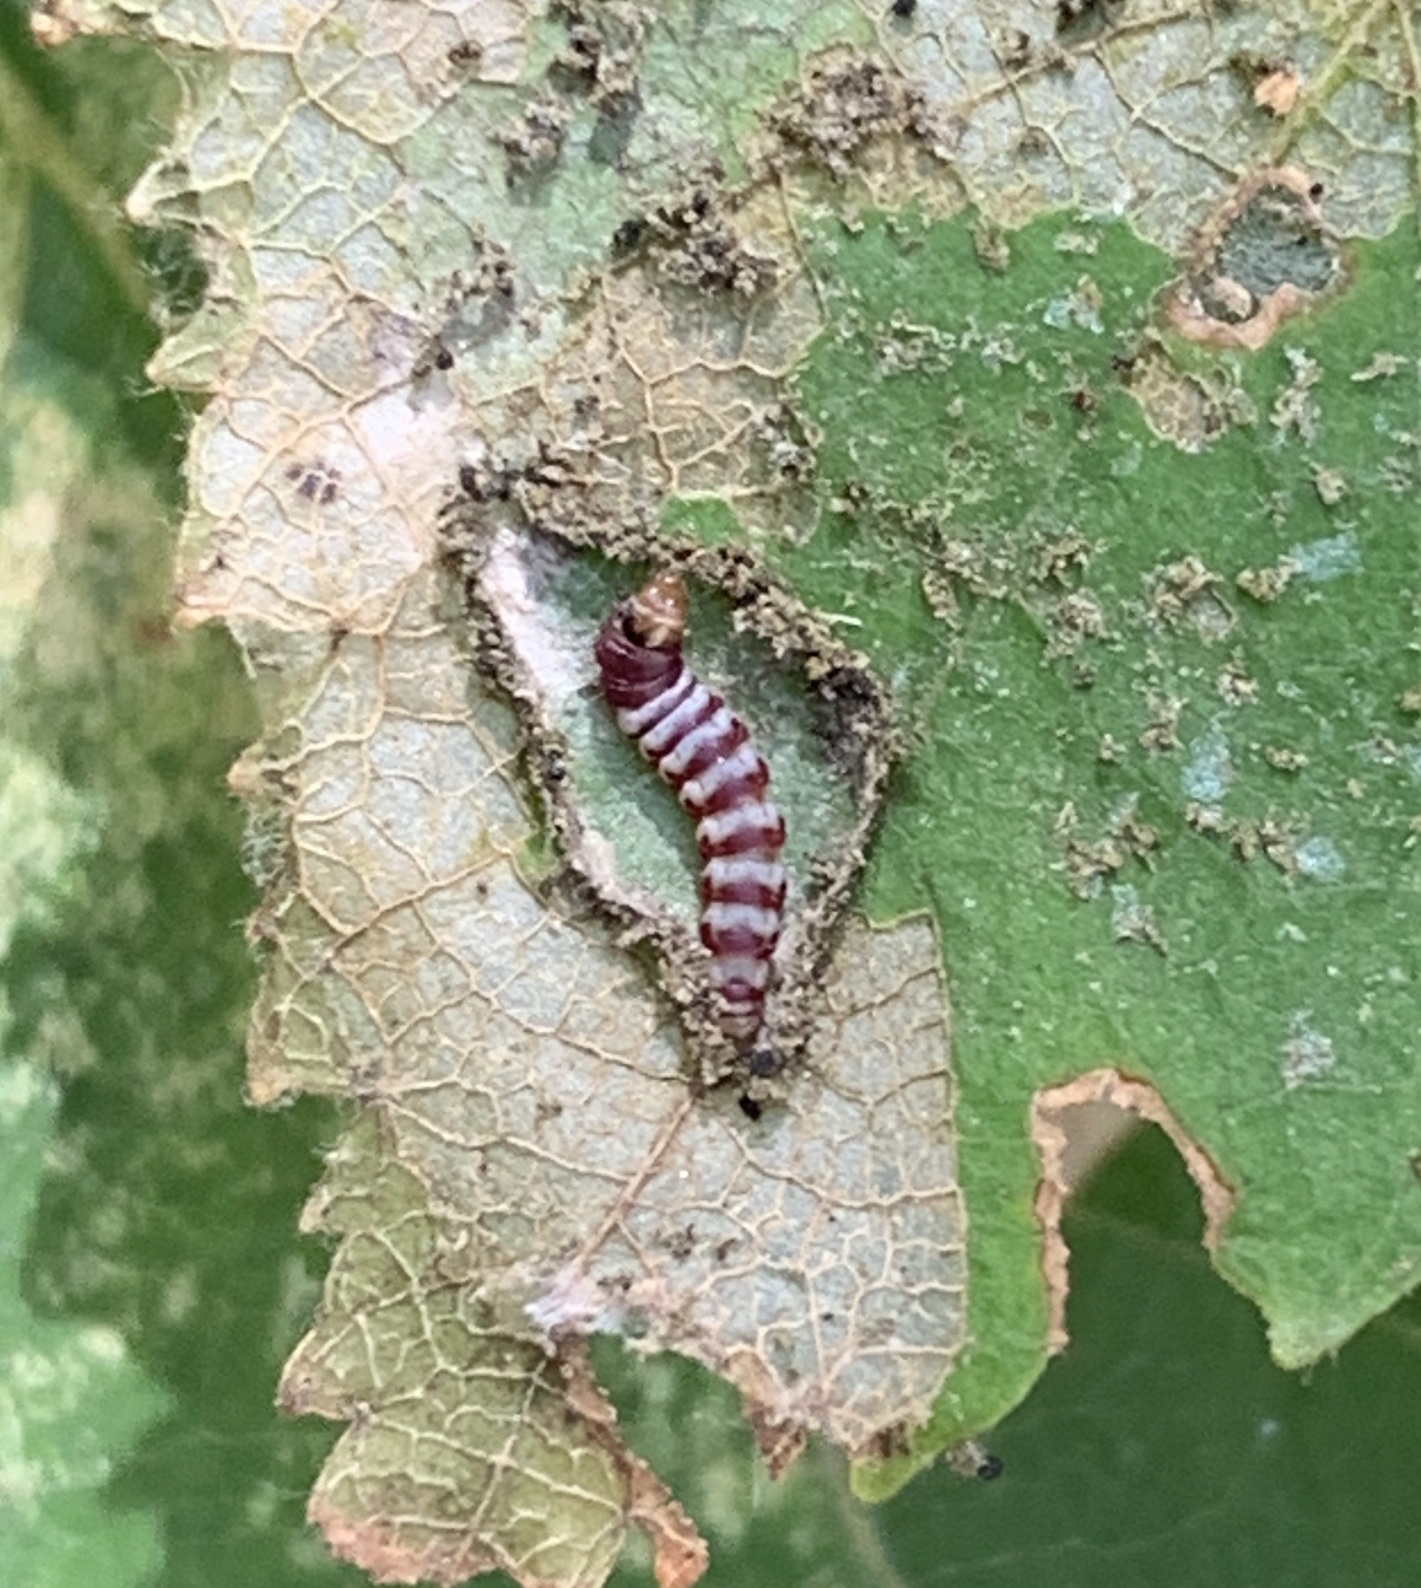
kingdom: Animalia
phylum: Arthropoda
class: Insecta
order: Lepidoptera
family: Gelechiidae
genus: Arogalea
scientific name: Arogalea cristifasciella
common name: White stripe-backed moth
